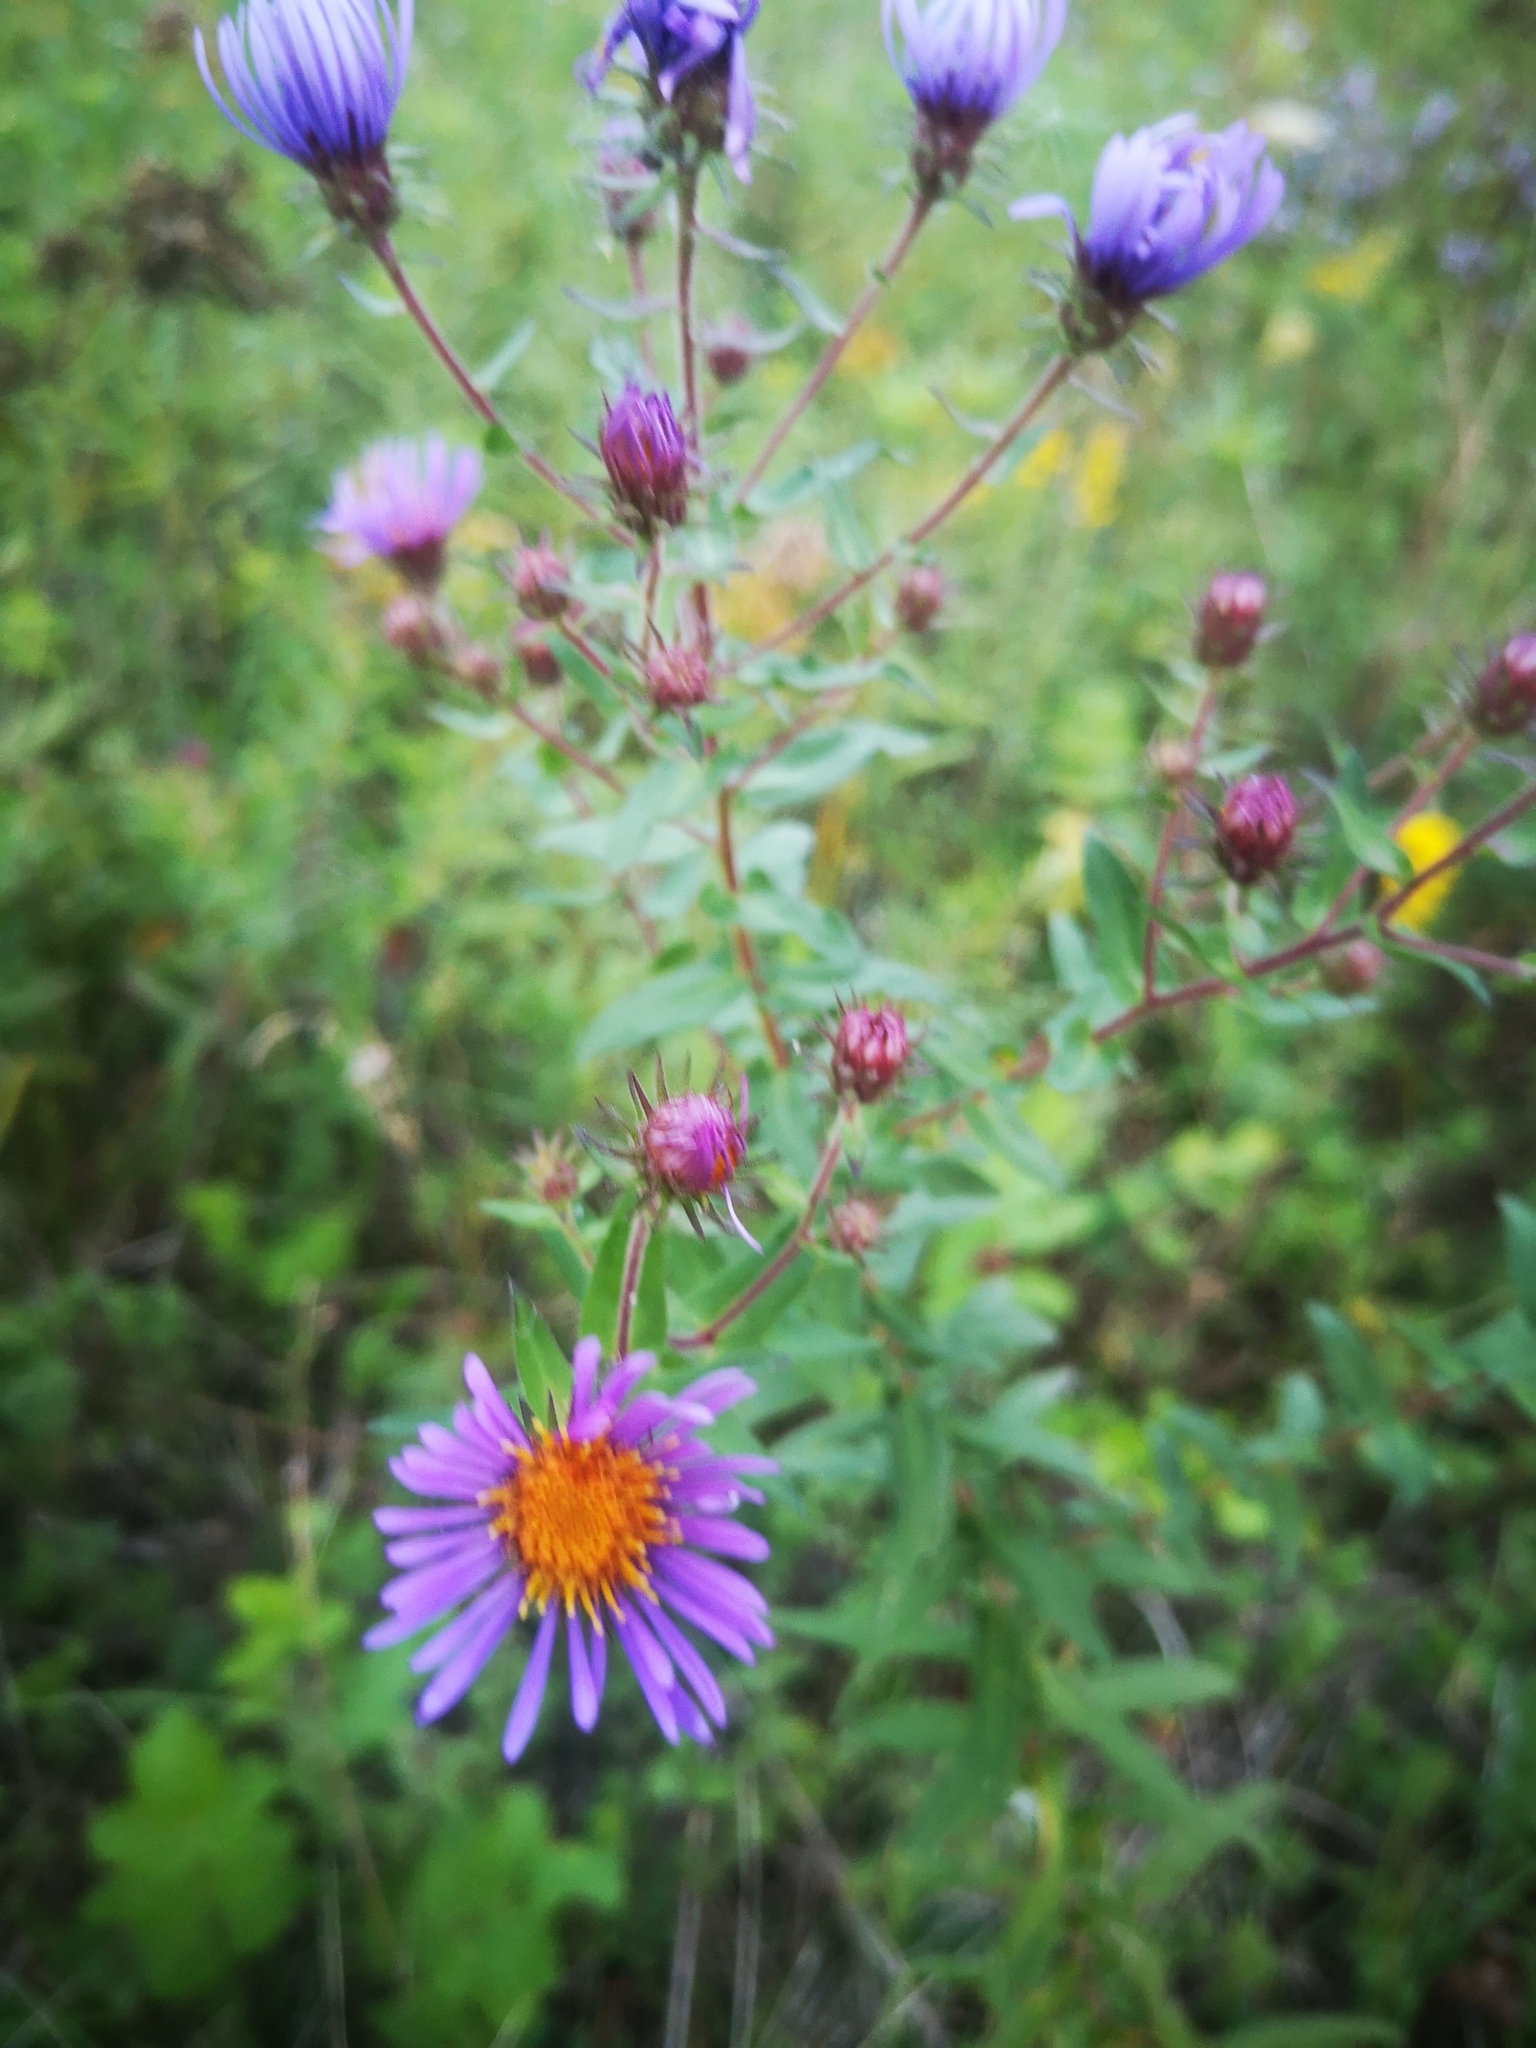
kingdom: Plantae
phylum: Tracheophyta
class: Magnoliopsida
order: Asterales
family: Asteraceae
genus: Symphyotrichum
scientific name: Symphyotrichum novae-angliae
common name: Michaelmas daisy
